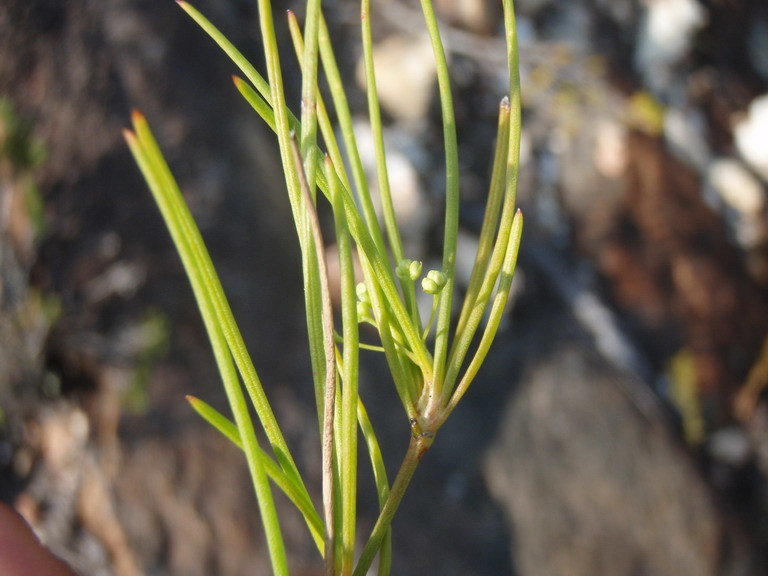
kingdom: Plantae
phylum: Tracheophyta
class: Magnoliopsida
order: Apiales
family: Apiaceae
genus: Centella
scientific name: Centella virgata
